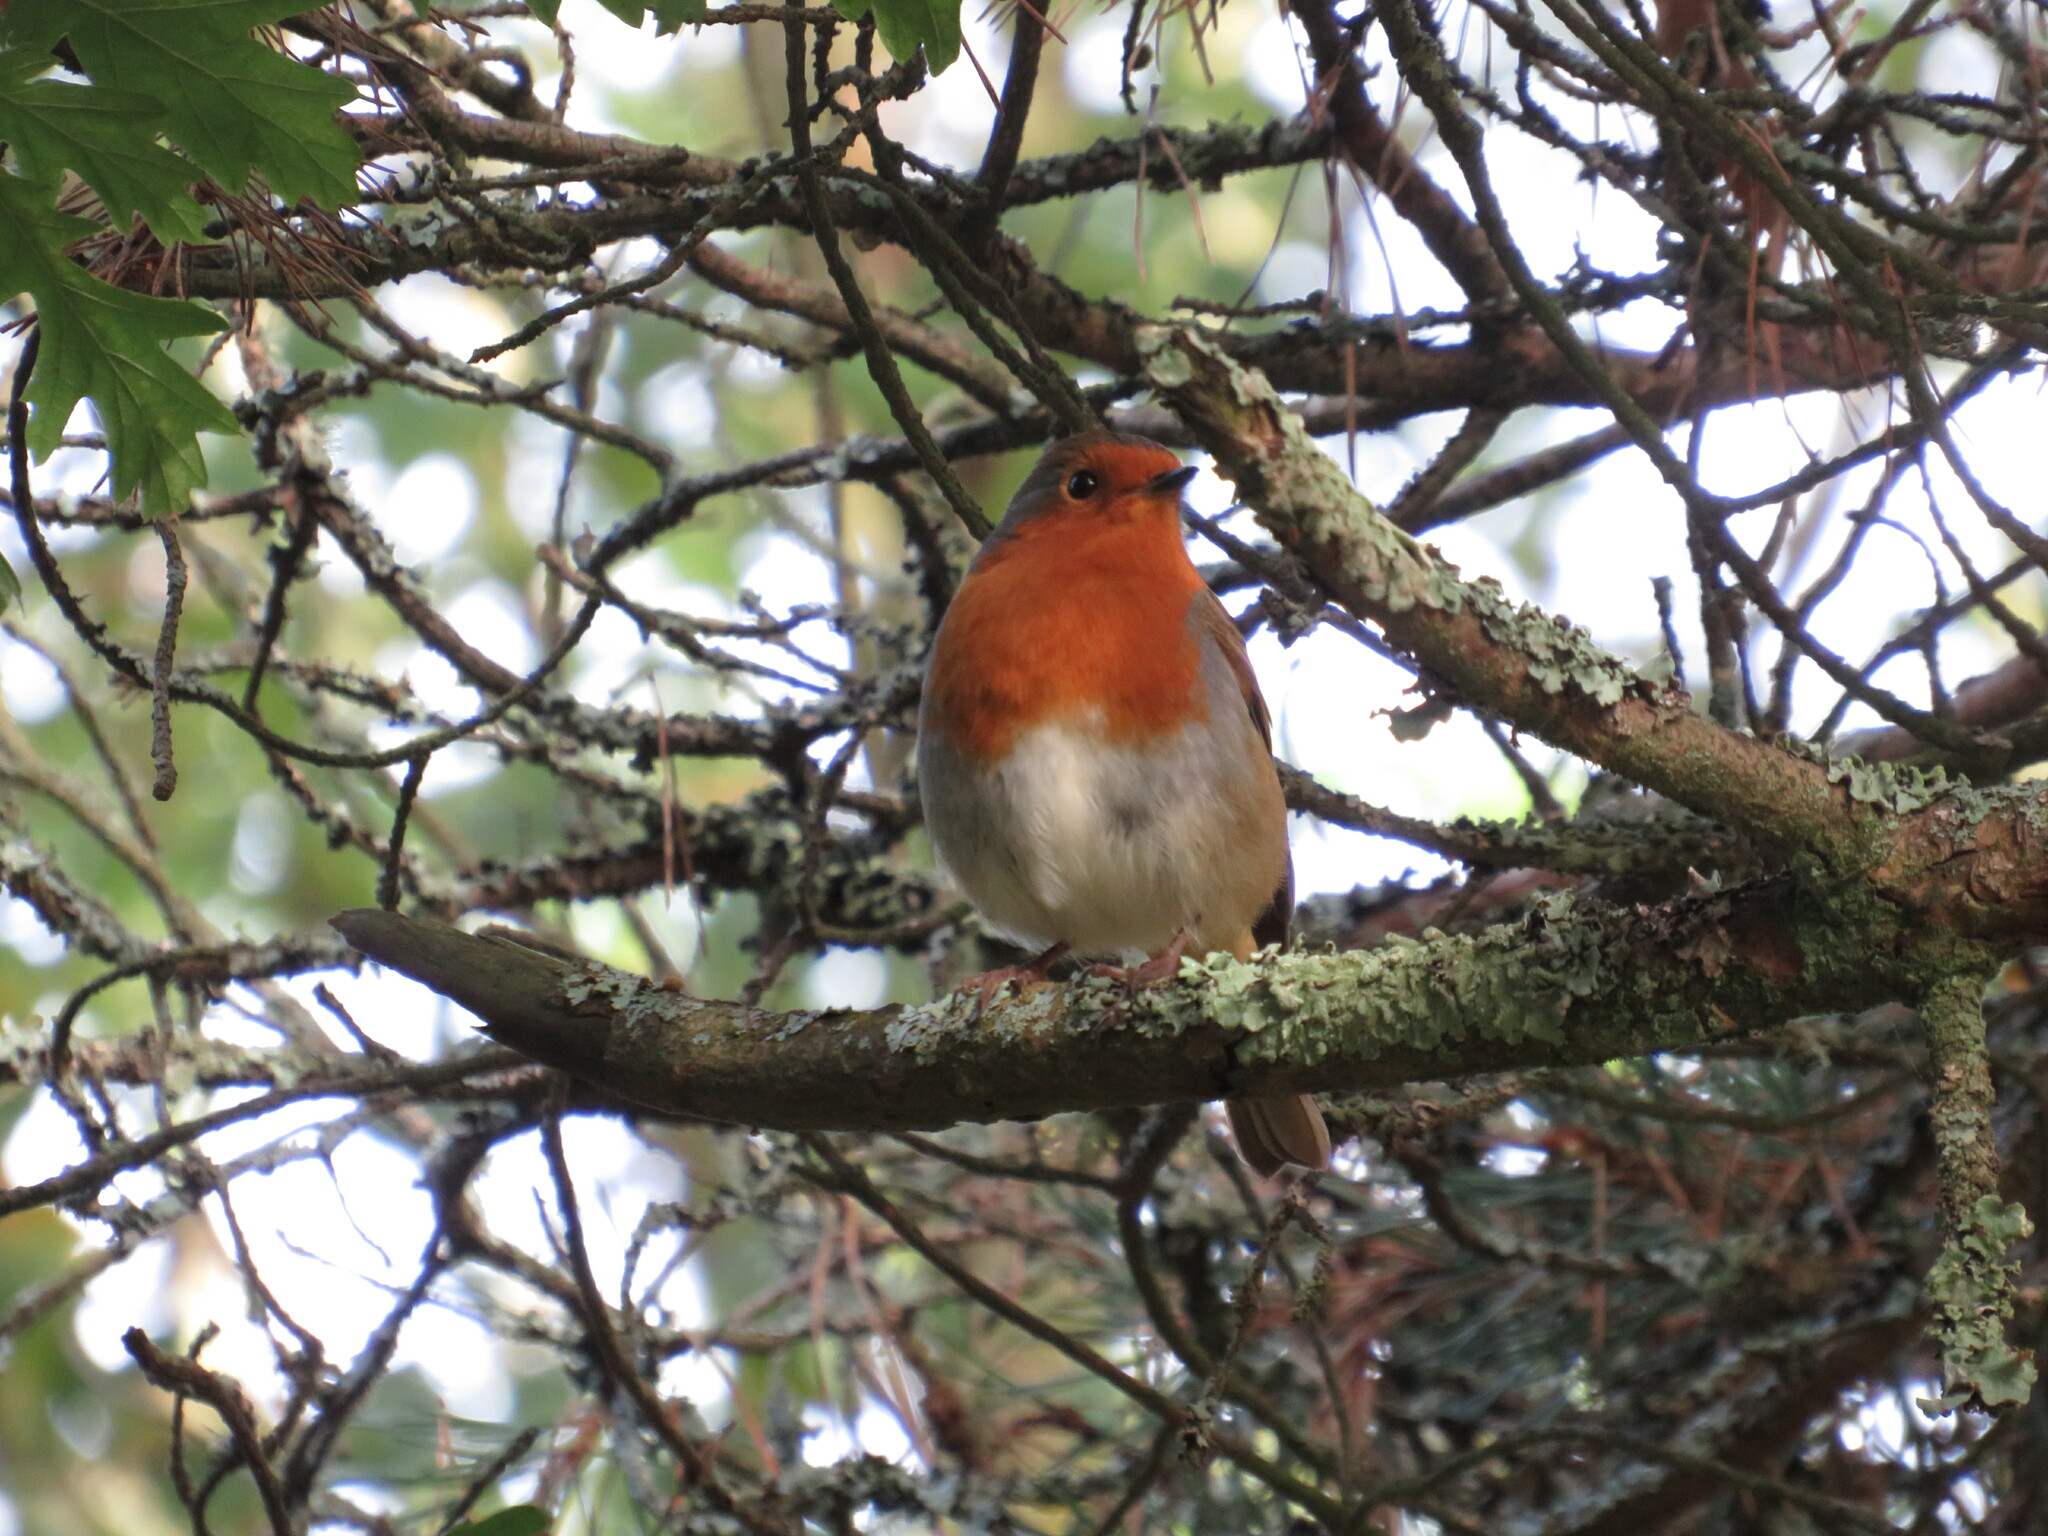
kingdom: Animalia
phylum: Chordata
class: Aves
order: Passeriformes
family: Muscicapidae
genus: Erithacus
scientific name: Erithacus rubecula
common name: European robin
